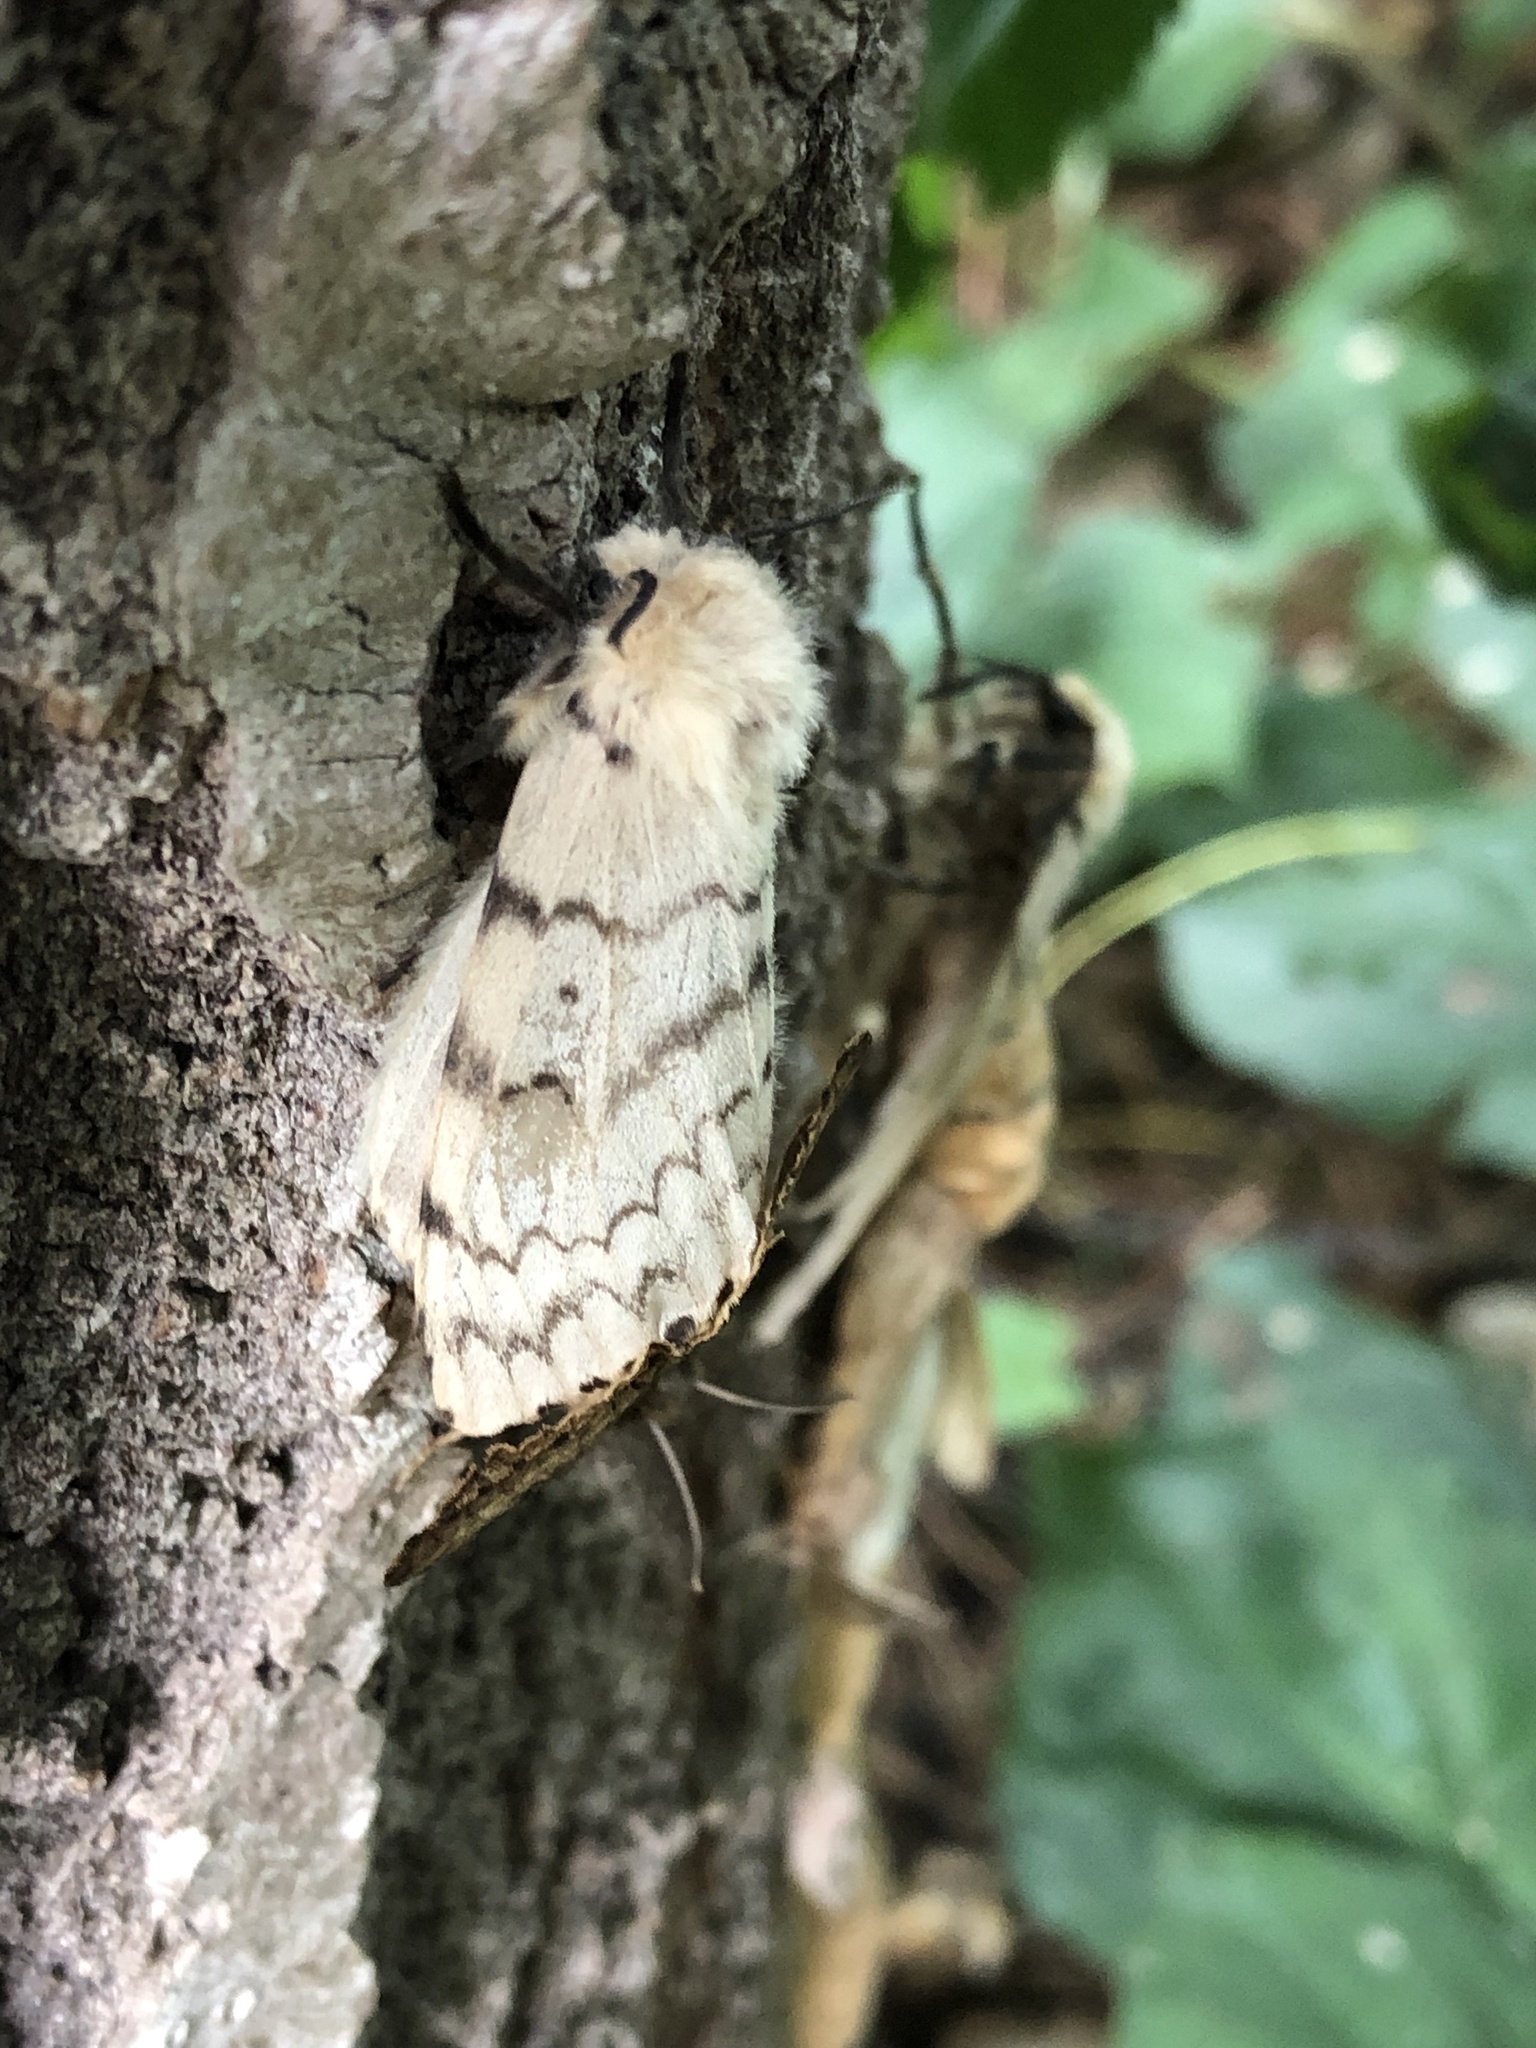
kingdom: Animalia
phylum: Arthropoda
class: Insecta
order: Lepidoptera
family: Erebidae
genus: Lymantria
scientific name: Lymantria dispar
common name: Gypsy moth
